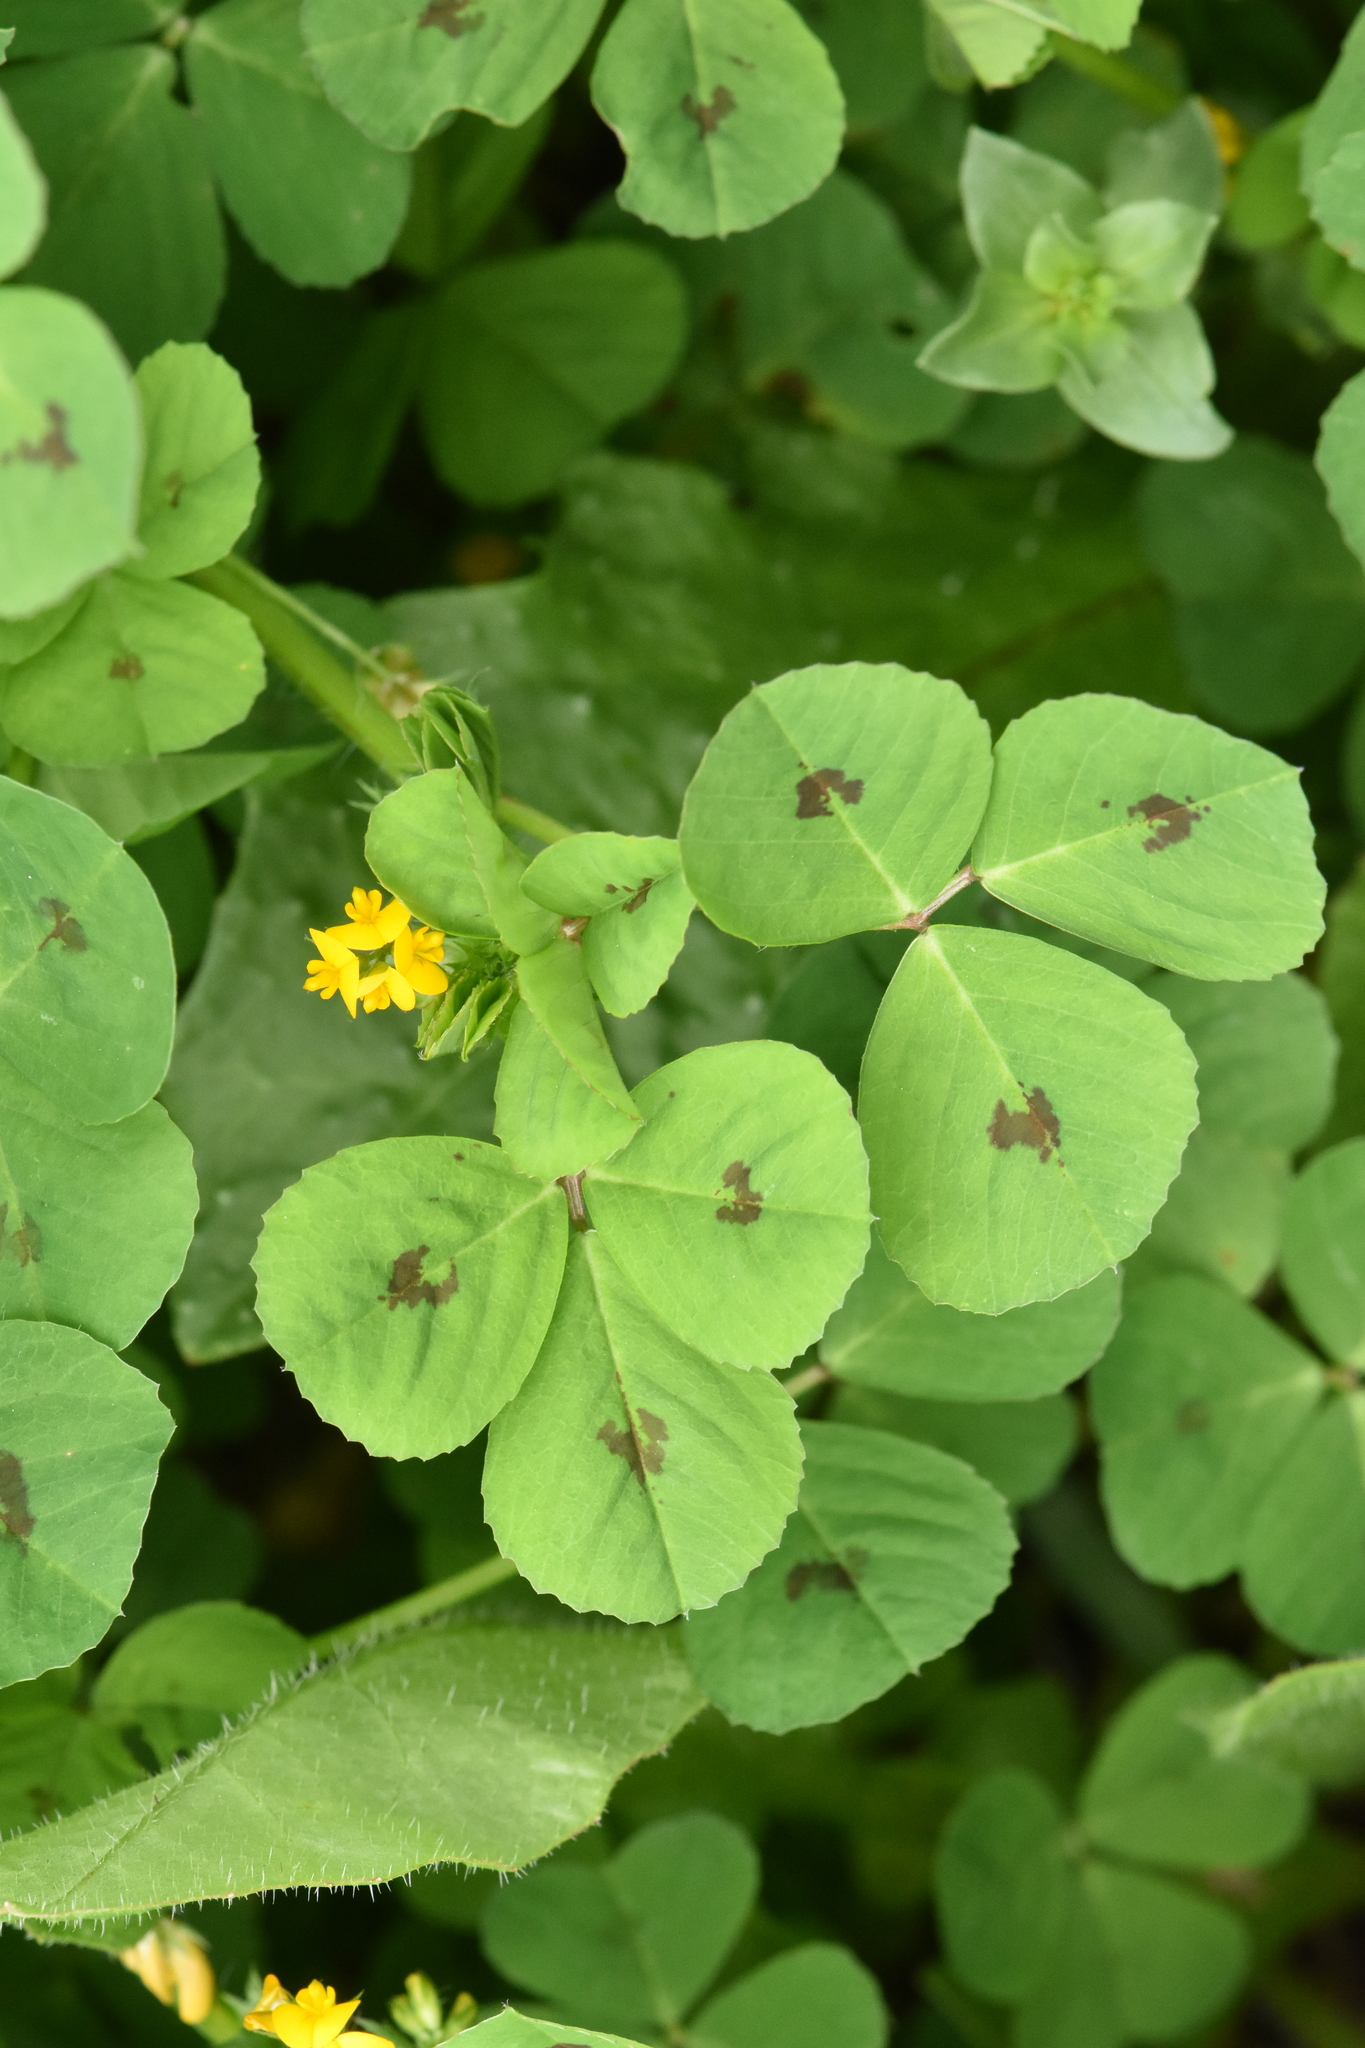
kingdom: Plantae
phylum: Tracheophyta
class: Magnoliopsida
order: Fabales
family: Fabaceae
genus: Medicago
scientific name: Medicago arabica
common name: Spotted medick
